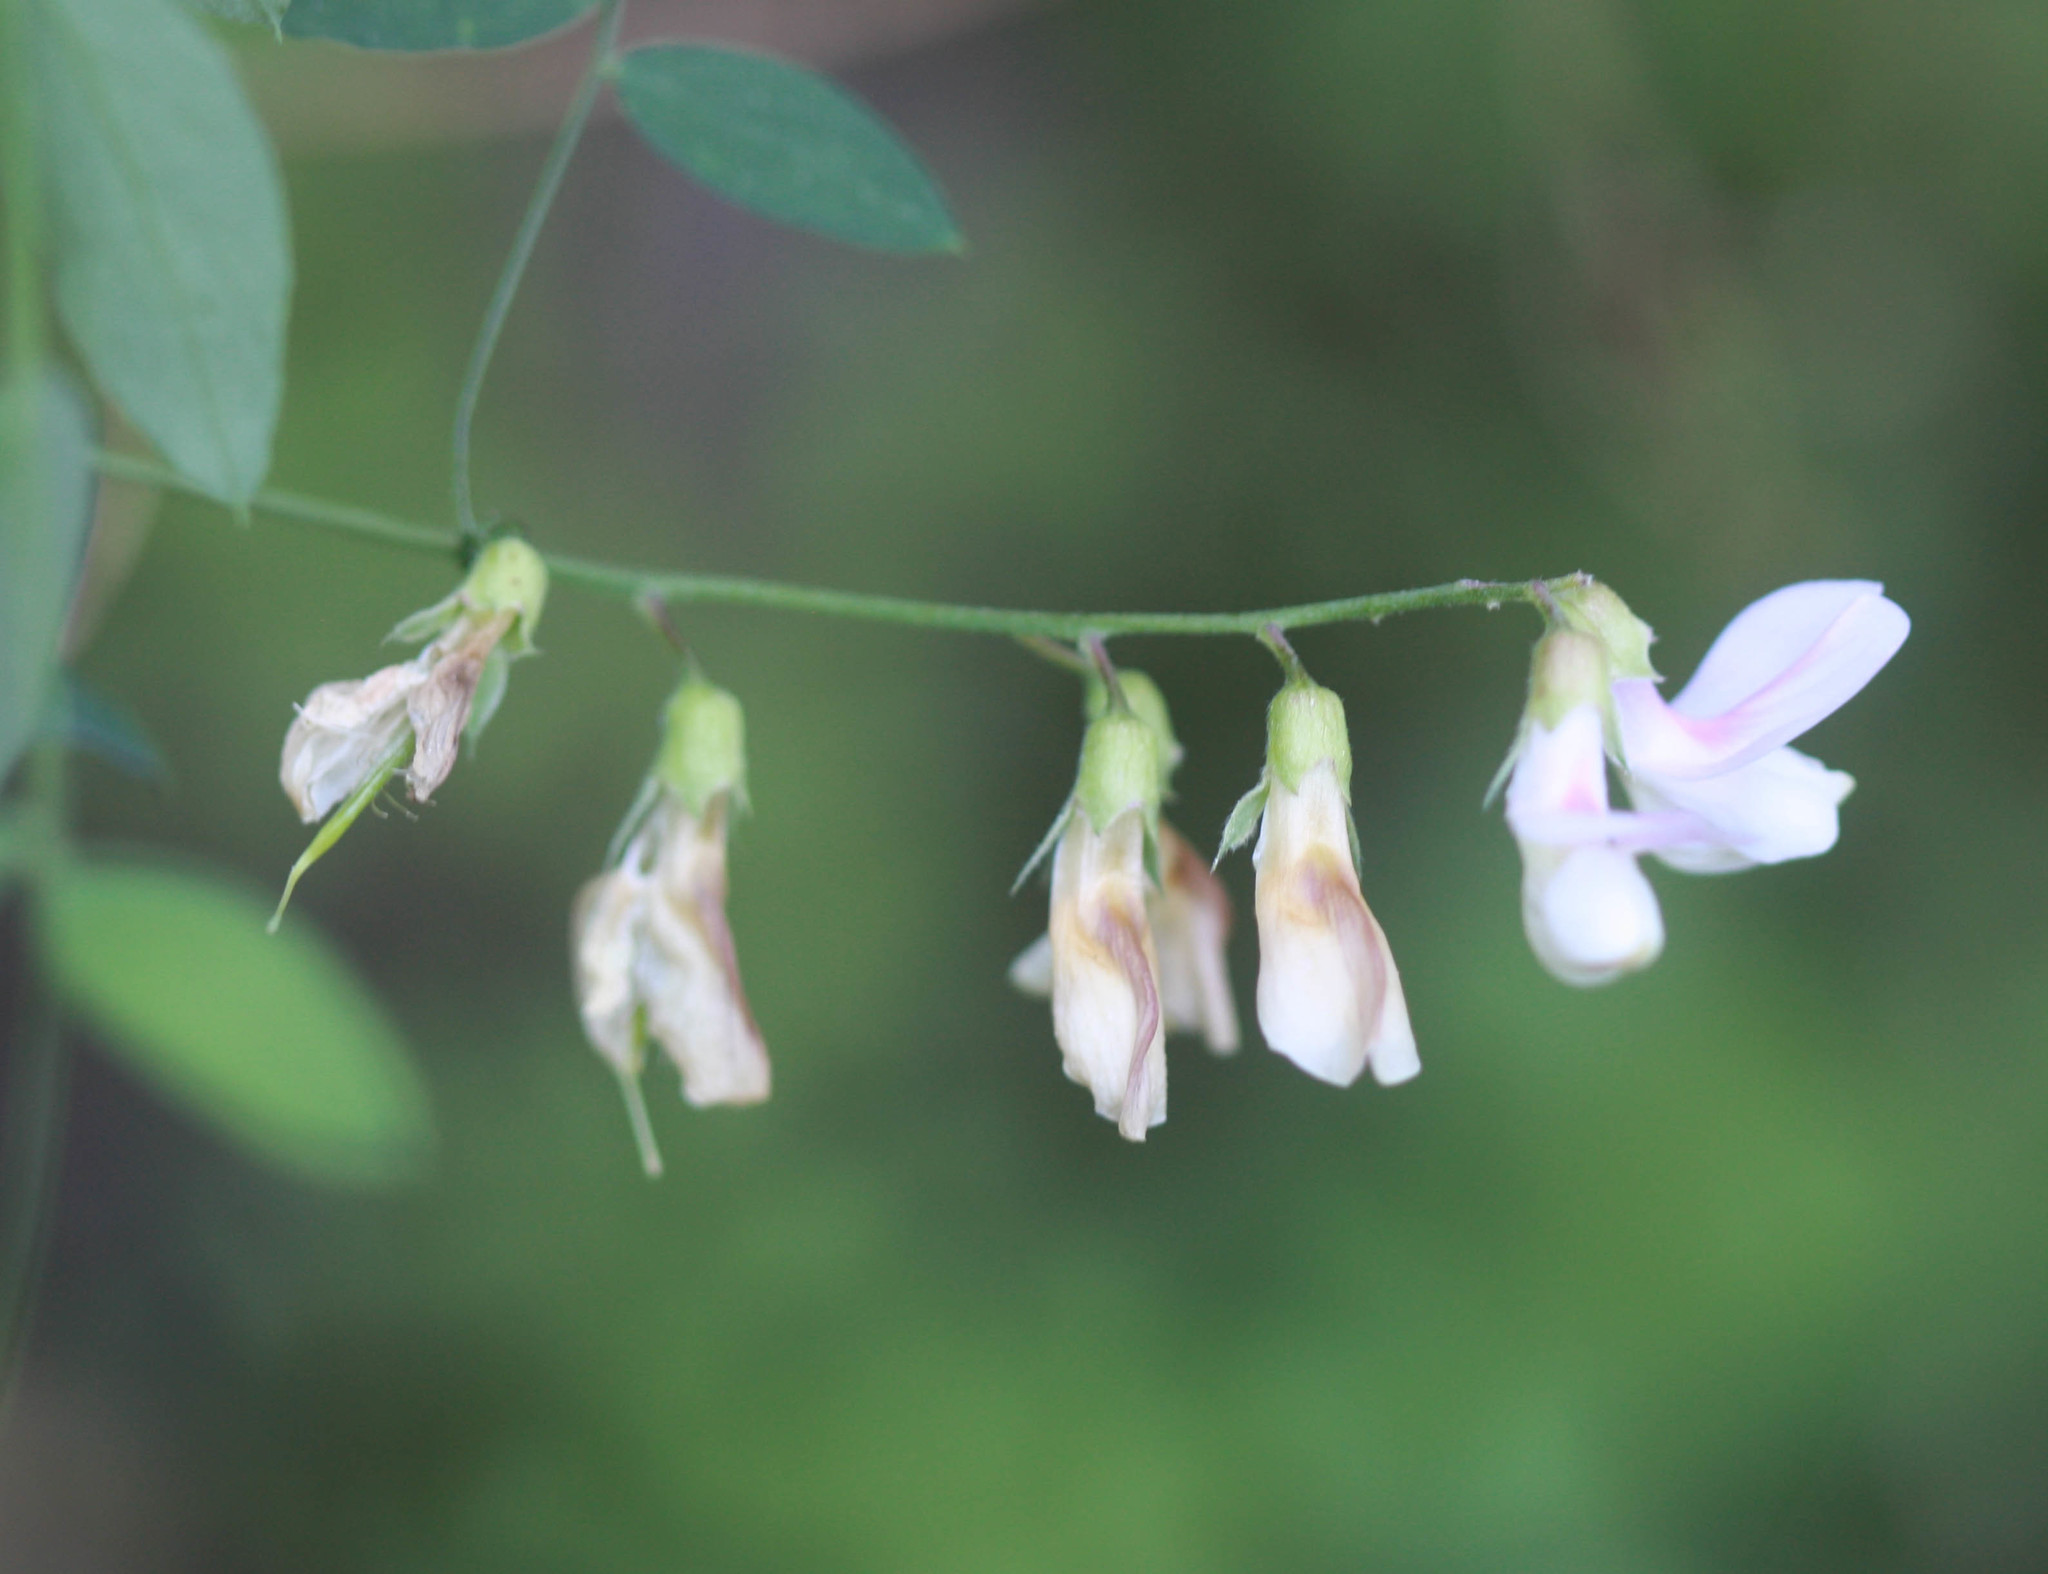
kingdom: Plantae
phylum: Tracheophyta
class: Magnoliopsida
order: Fabales
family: Fabaceae
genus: Lathyrus
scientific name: Lathyrus vestitus
